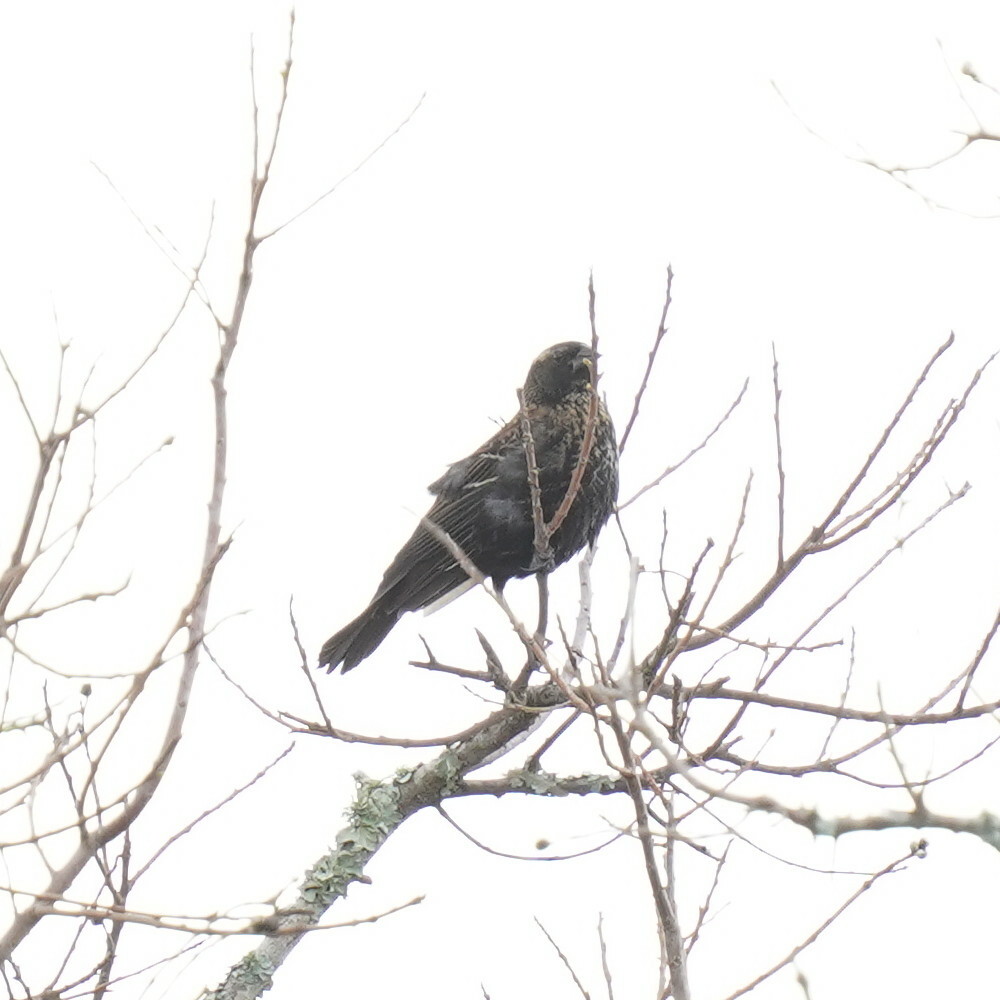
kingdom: Animalia
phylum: Chordata
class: Aves
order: Passeriformes
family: Icteridae
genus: Agelaius
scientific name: Agelaius phoeniceus
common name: Red-winged blackbird
